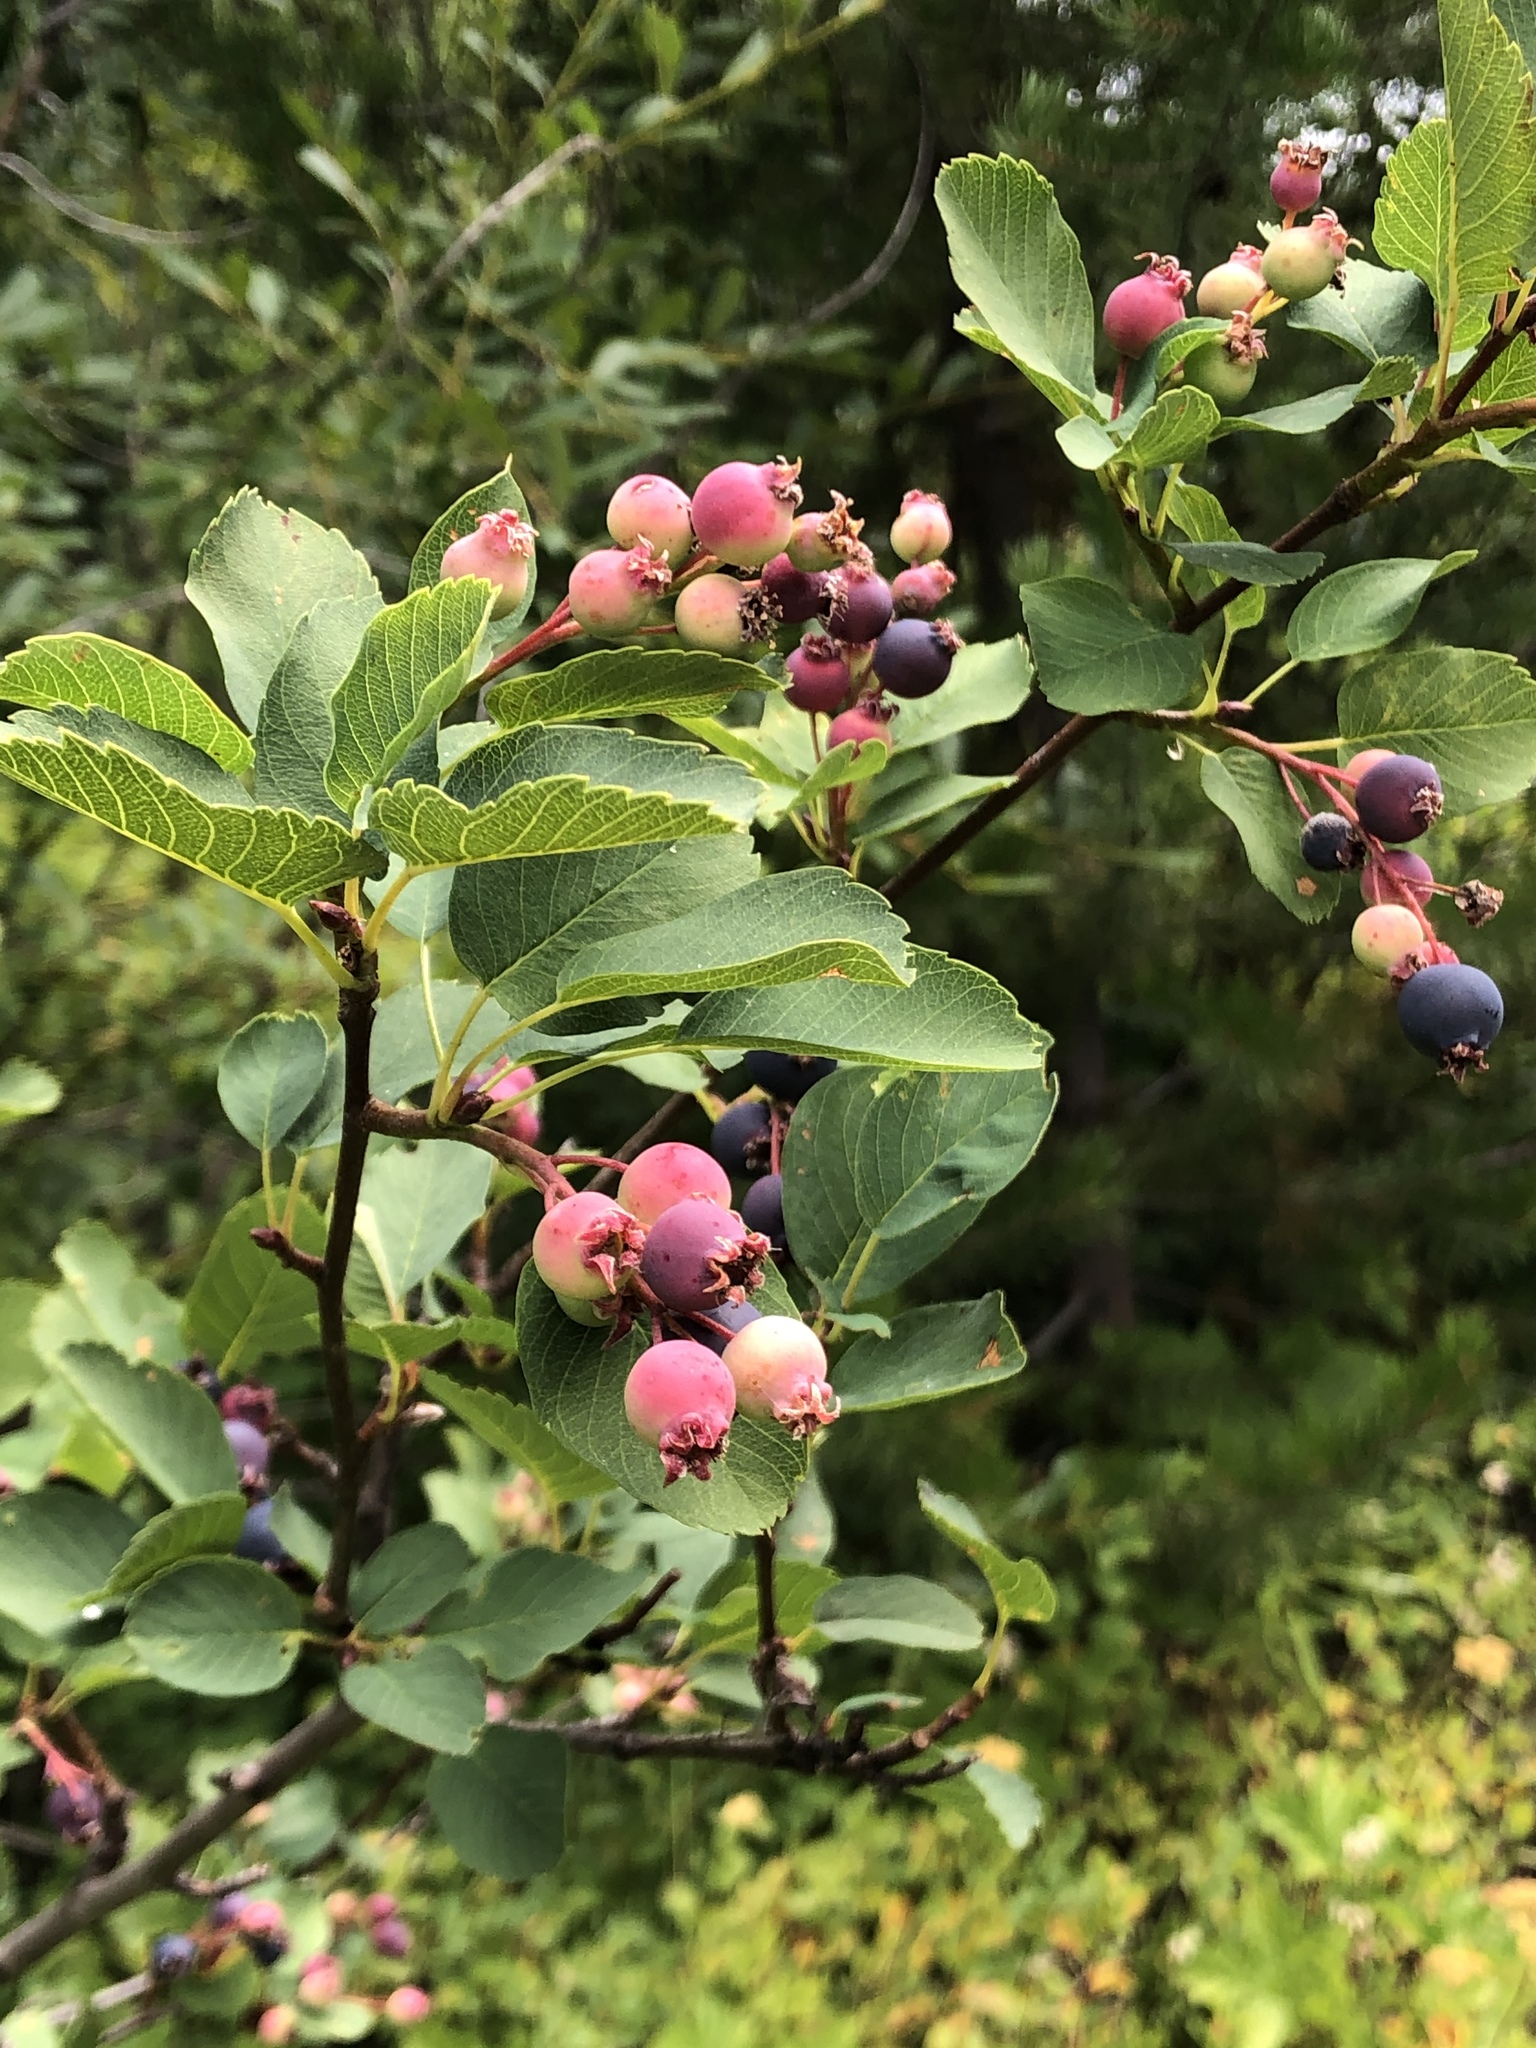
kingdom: Plantae
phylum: Tracheophyta
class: Magnoliopsida
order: Rosales
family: Rosaceae
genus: Amelanchier
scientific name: Amelanchier alnifolia
